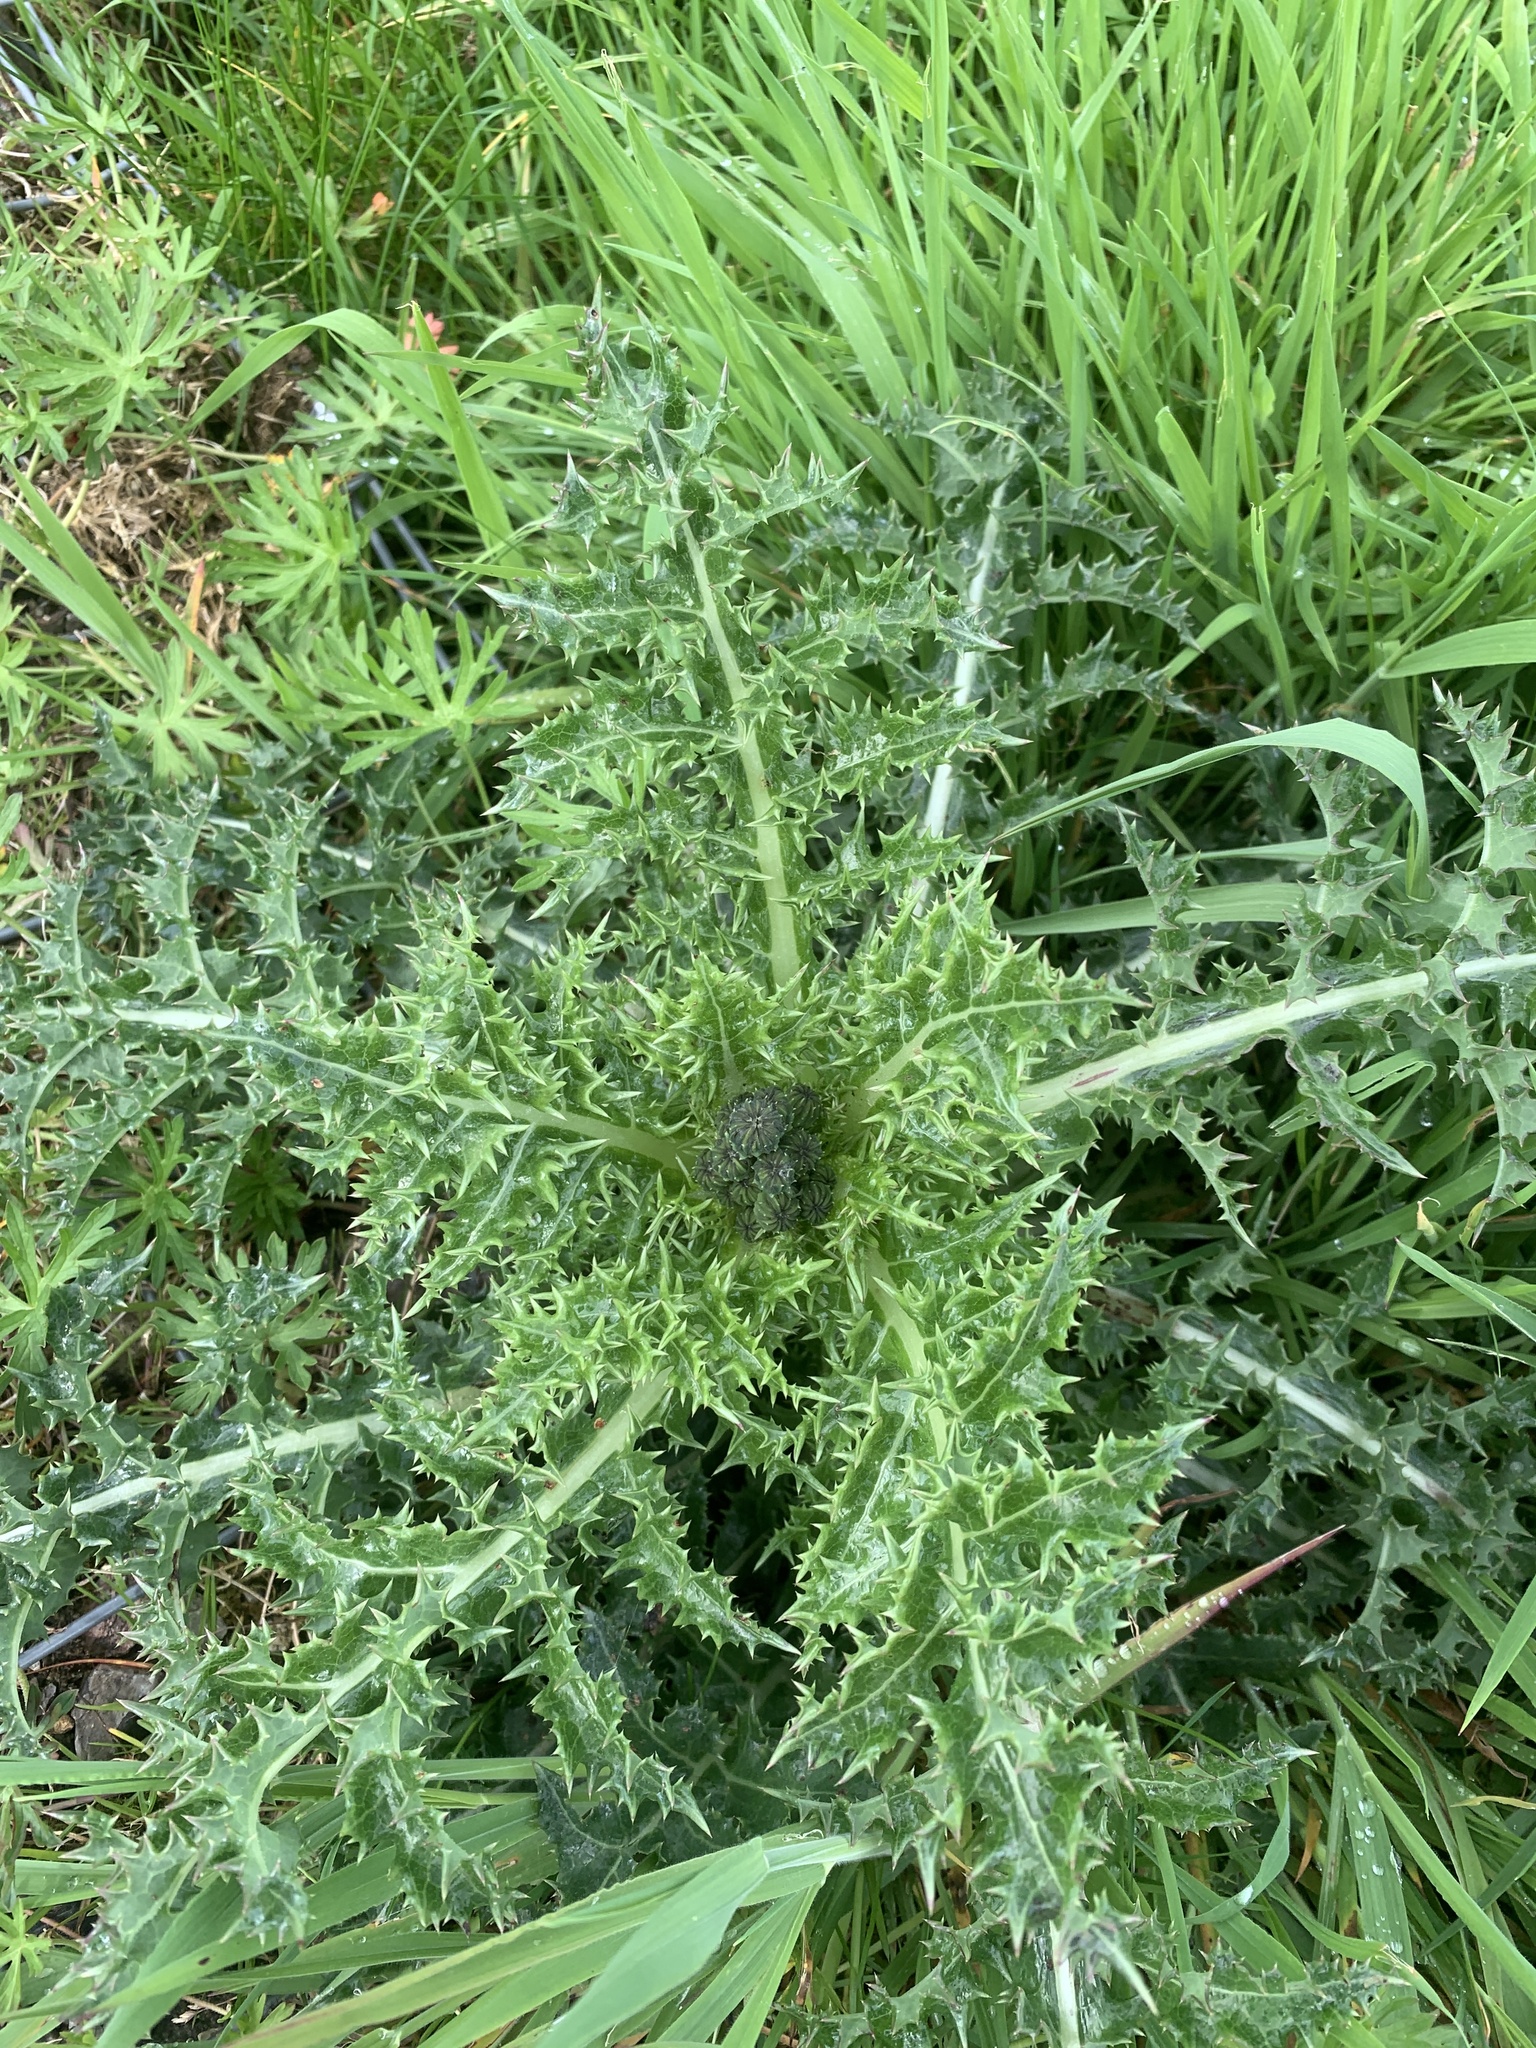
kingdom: Plantae
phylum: Tracheophyta
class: Magnoliopsida
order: Asterales
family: Asteraceae
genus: Cirsium
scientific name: Cirsium arvense
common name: Creeping thistle
